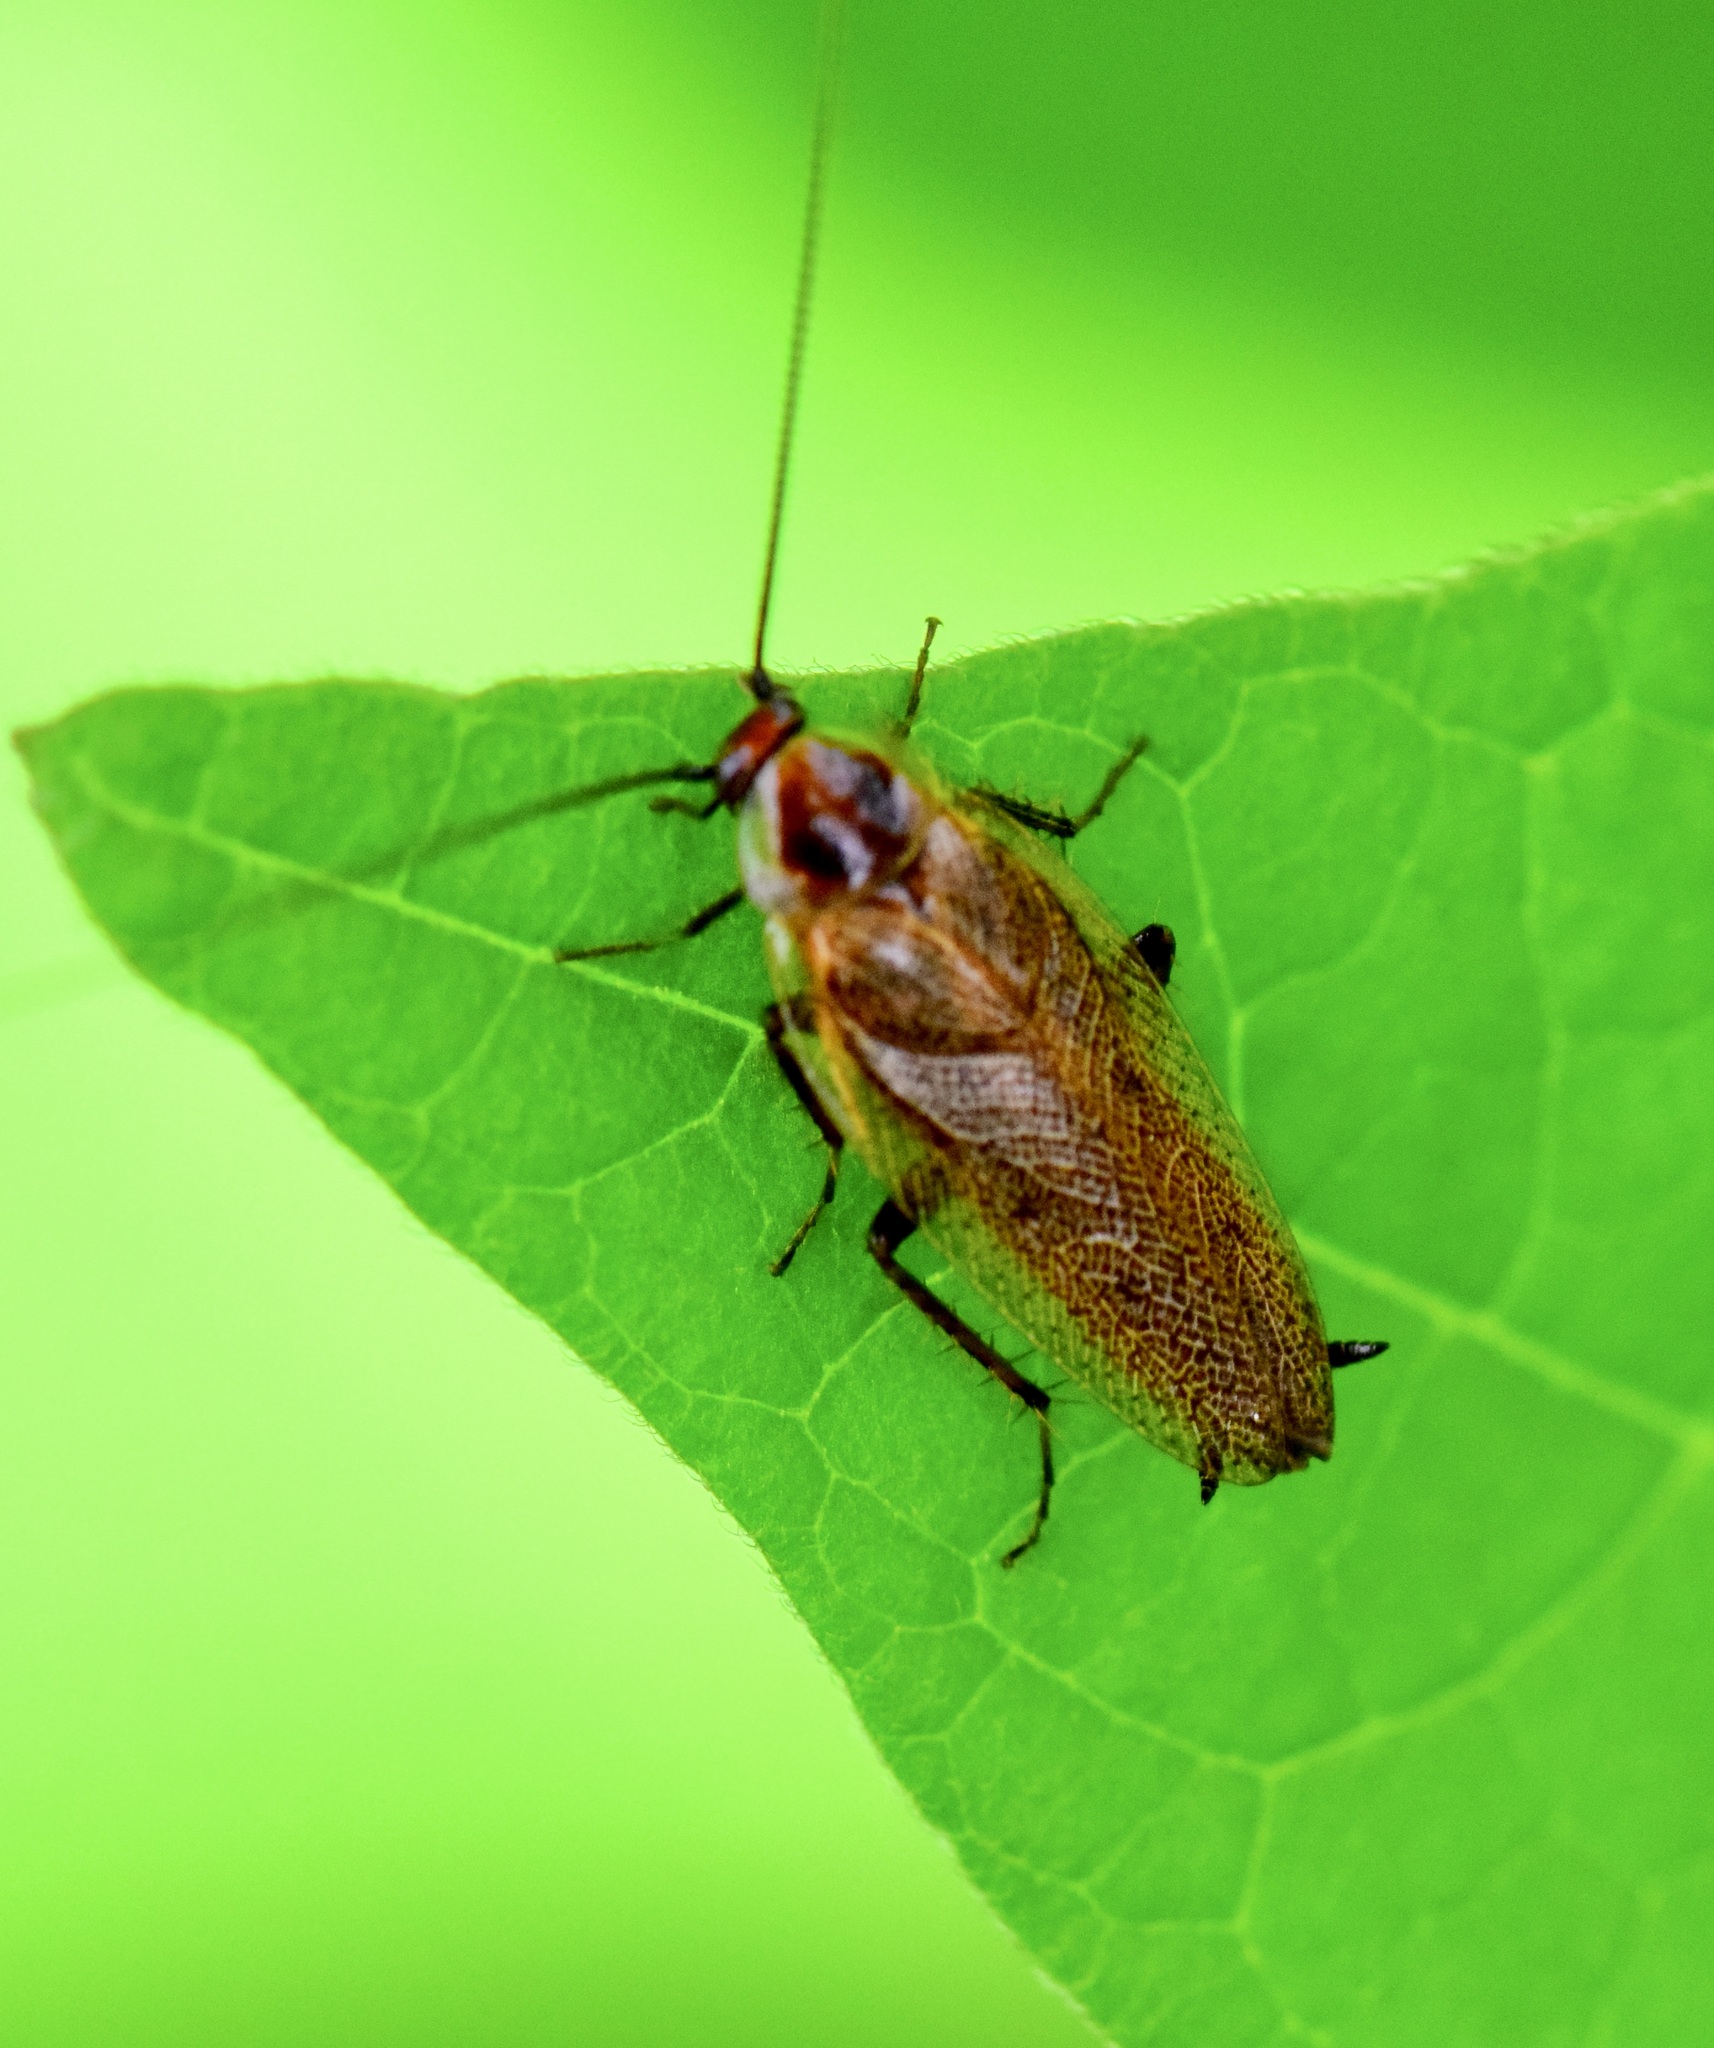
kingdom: Animalia
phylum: Arthropoda
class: Insecta
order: Blattodea
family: Ectobiidae
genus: Ectobius
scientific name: Ectobius lapponicus
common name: Dusky cockroach
